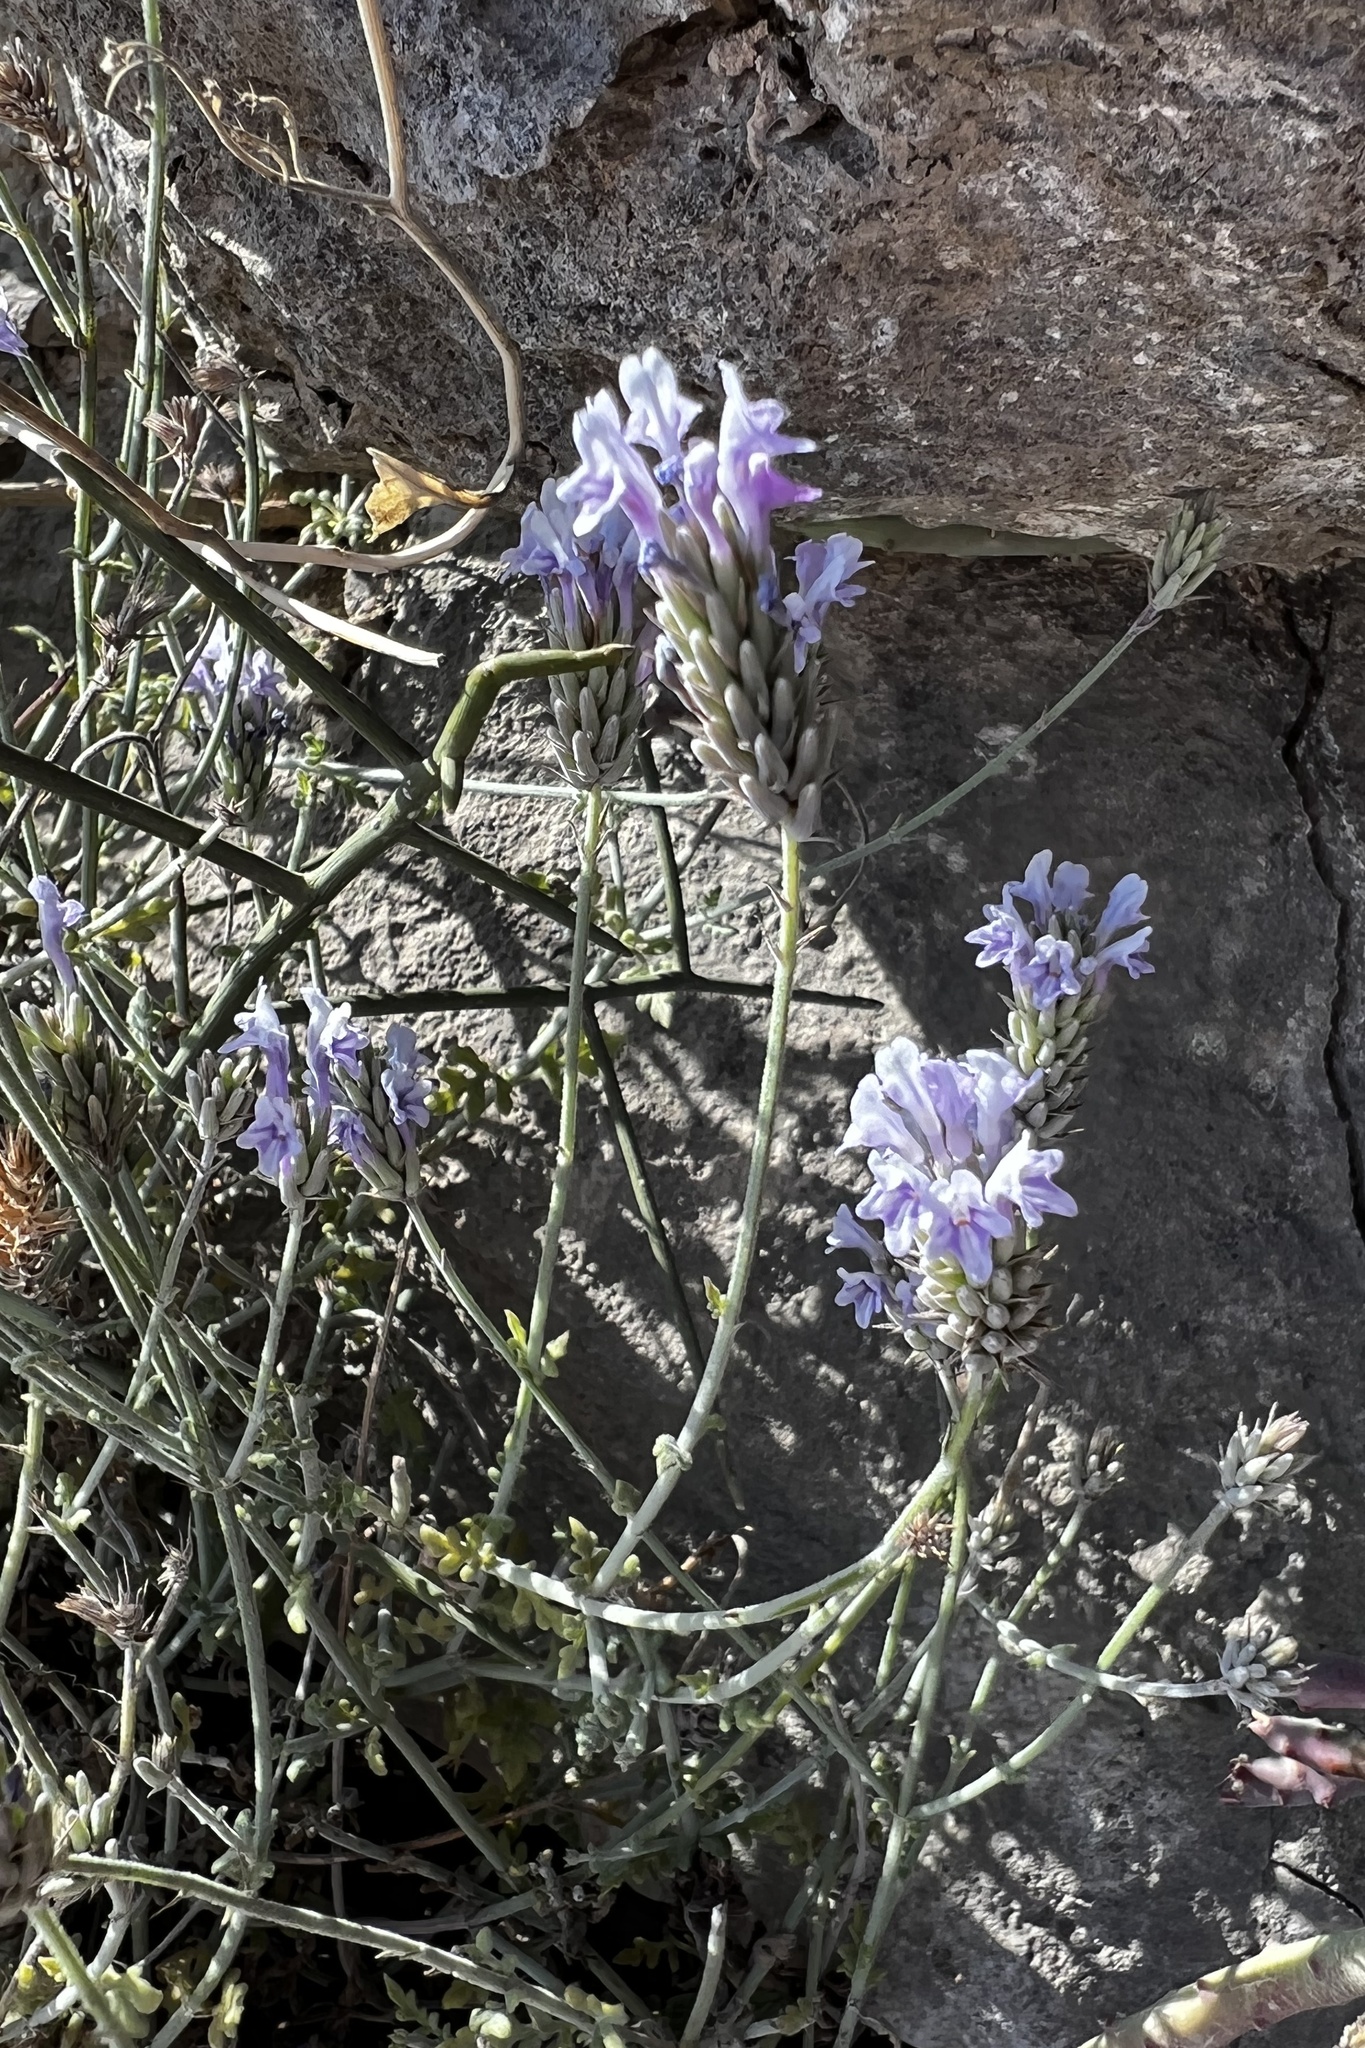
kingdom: Plantae
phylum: Tracheophyta
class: Magnoliopsida
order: Lamiales
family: Lamiaceae
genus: Lavandula
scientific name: Lavandula subnuda
